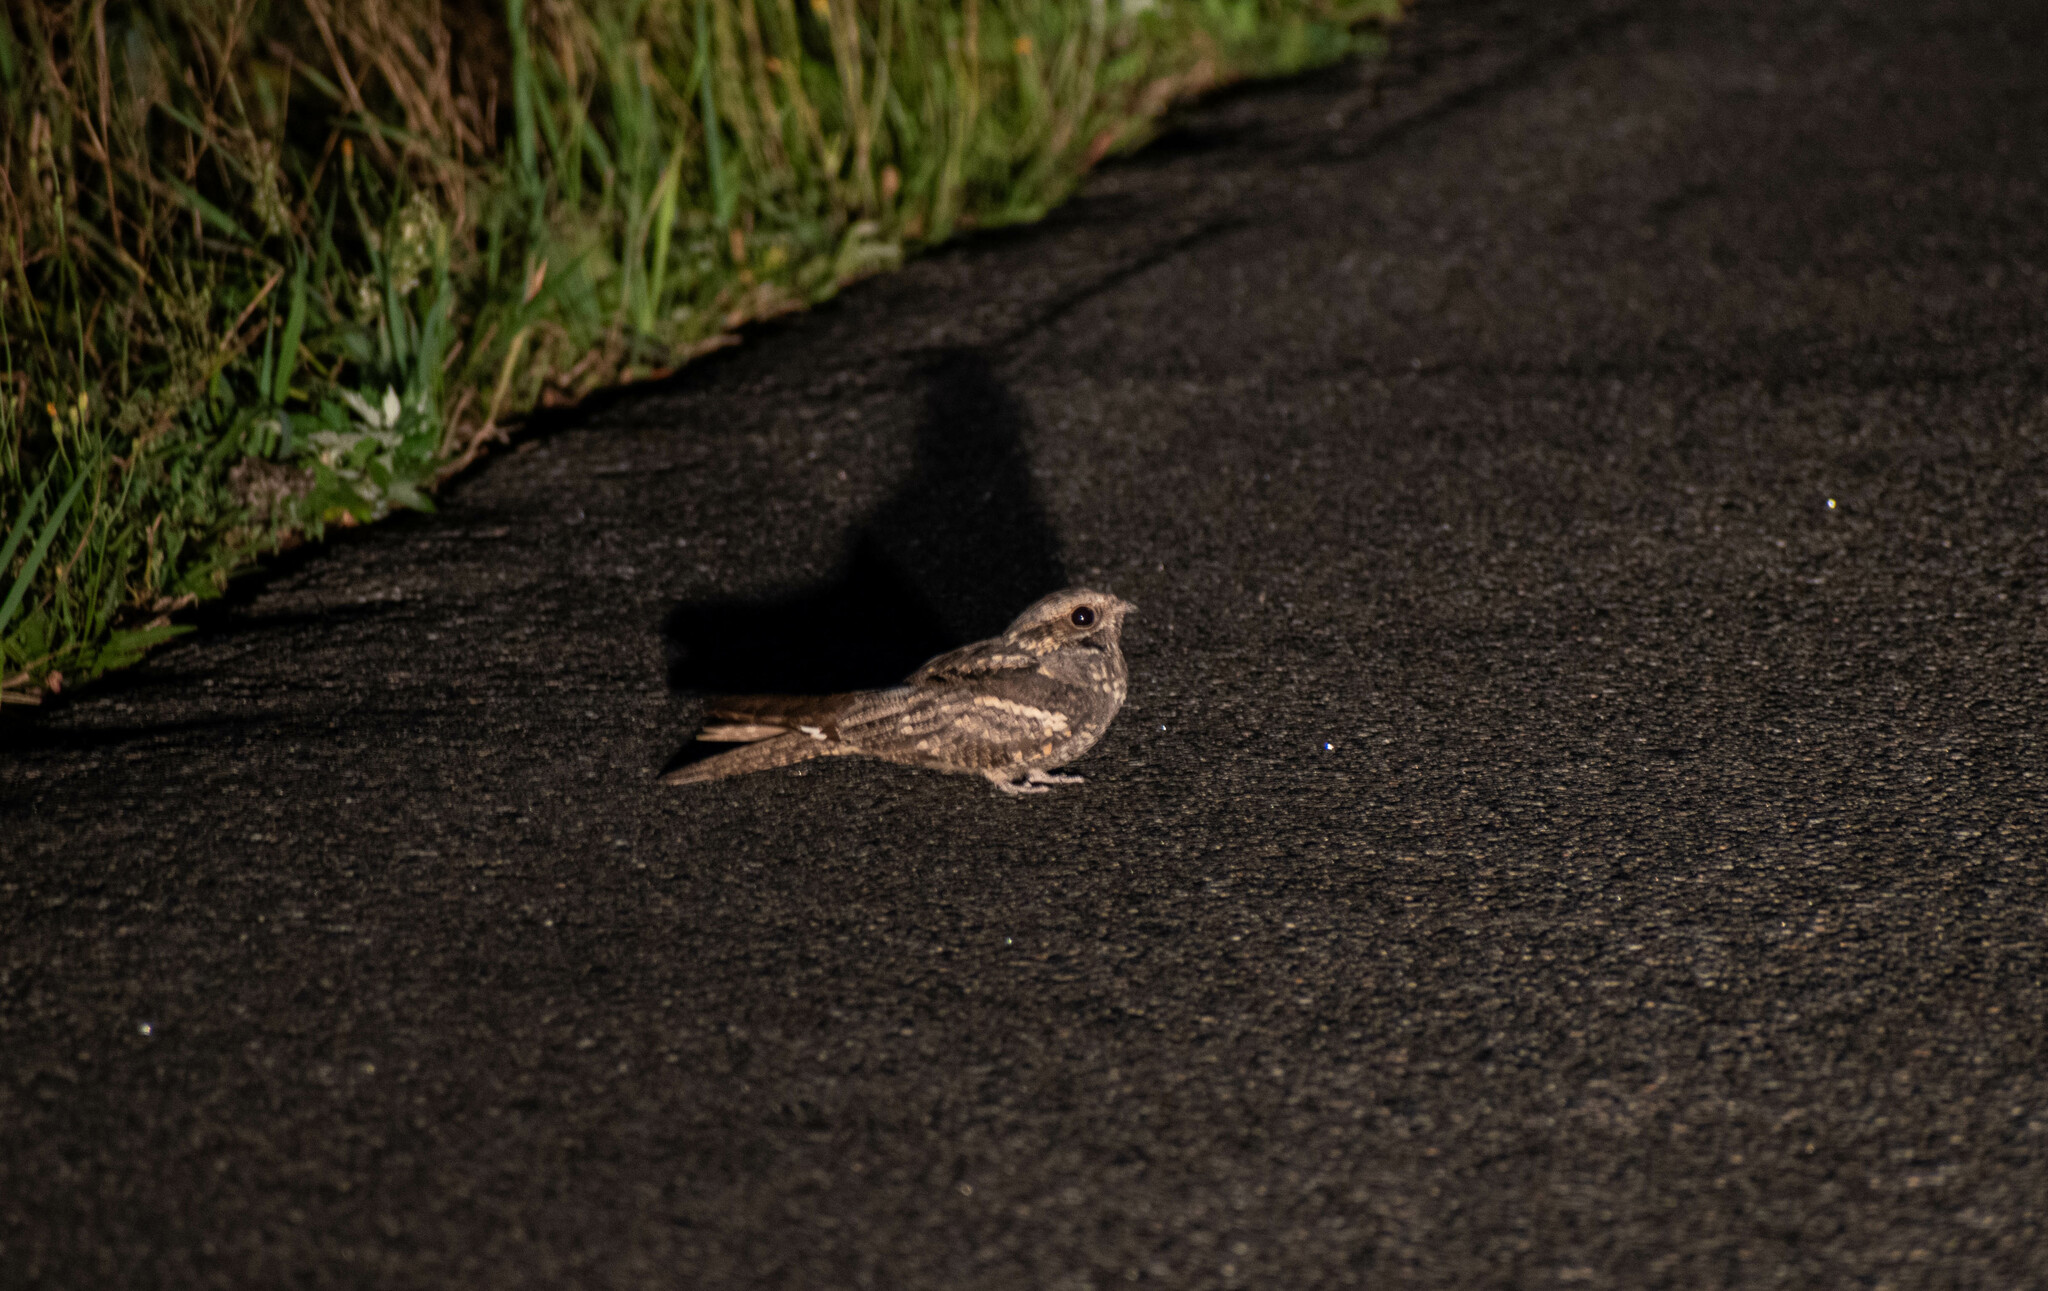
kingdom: Animalia
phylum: Chordata
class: Aves
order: Caprimulgiformes
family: Caprimulgidae
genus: Caprimulgus
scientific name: Caprimulgus europaeus
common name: European nightjar
